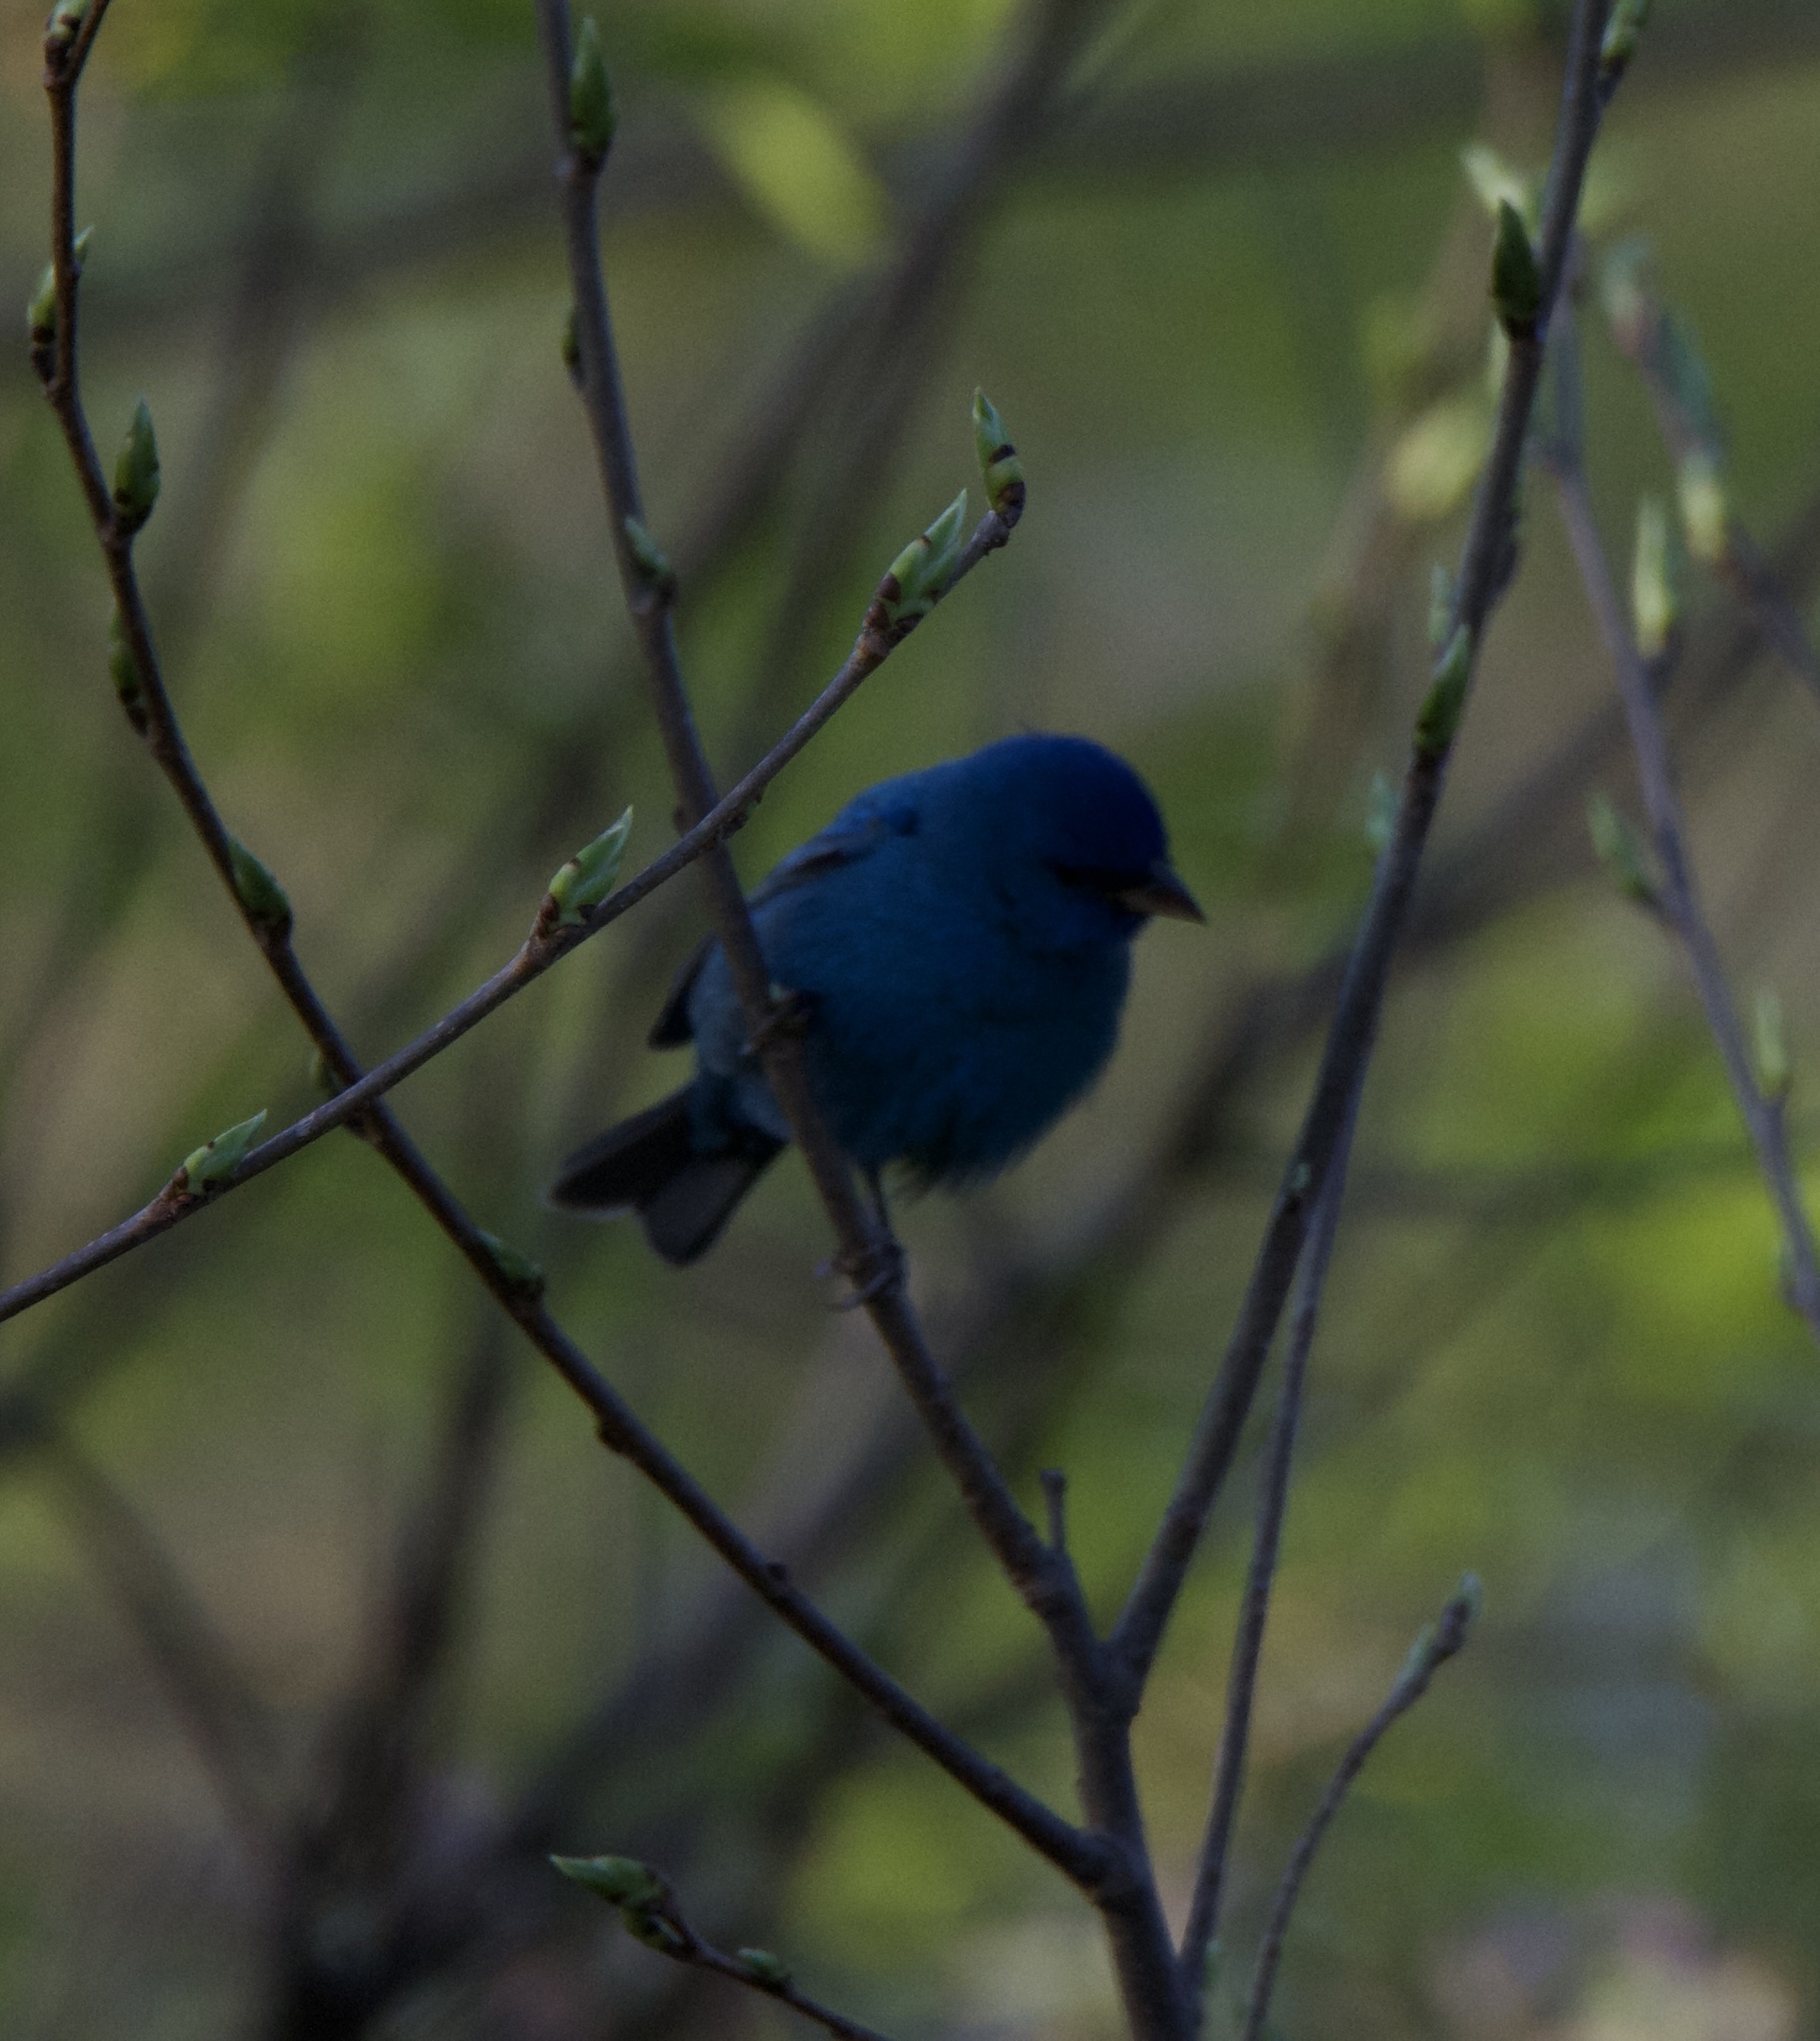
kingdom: Animalia
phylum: Chordata
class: Aves
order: Passeriformes
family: Cardinalidae
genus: Passerina
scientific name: Passerina cyanea
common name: Indigo bunting
